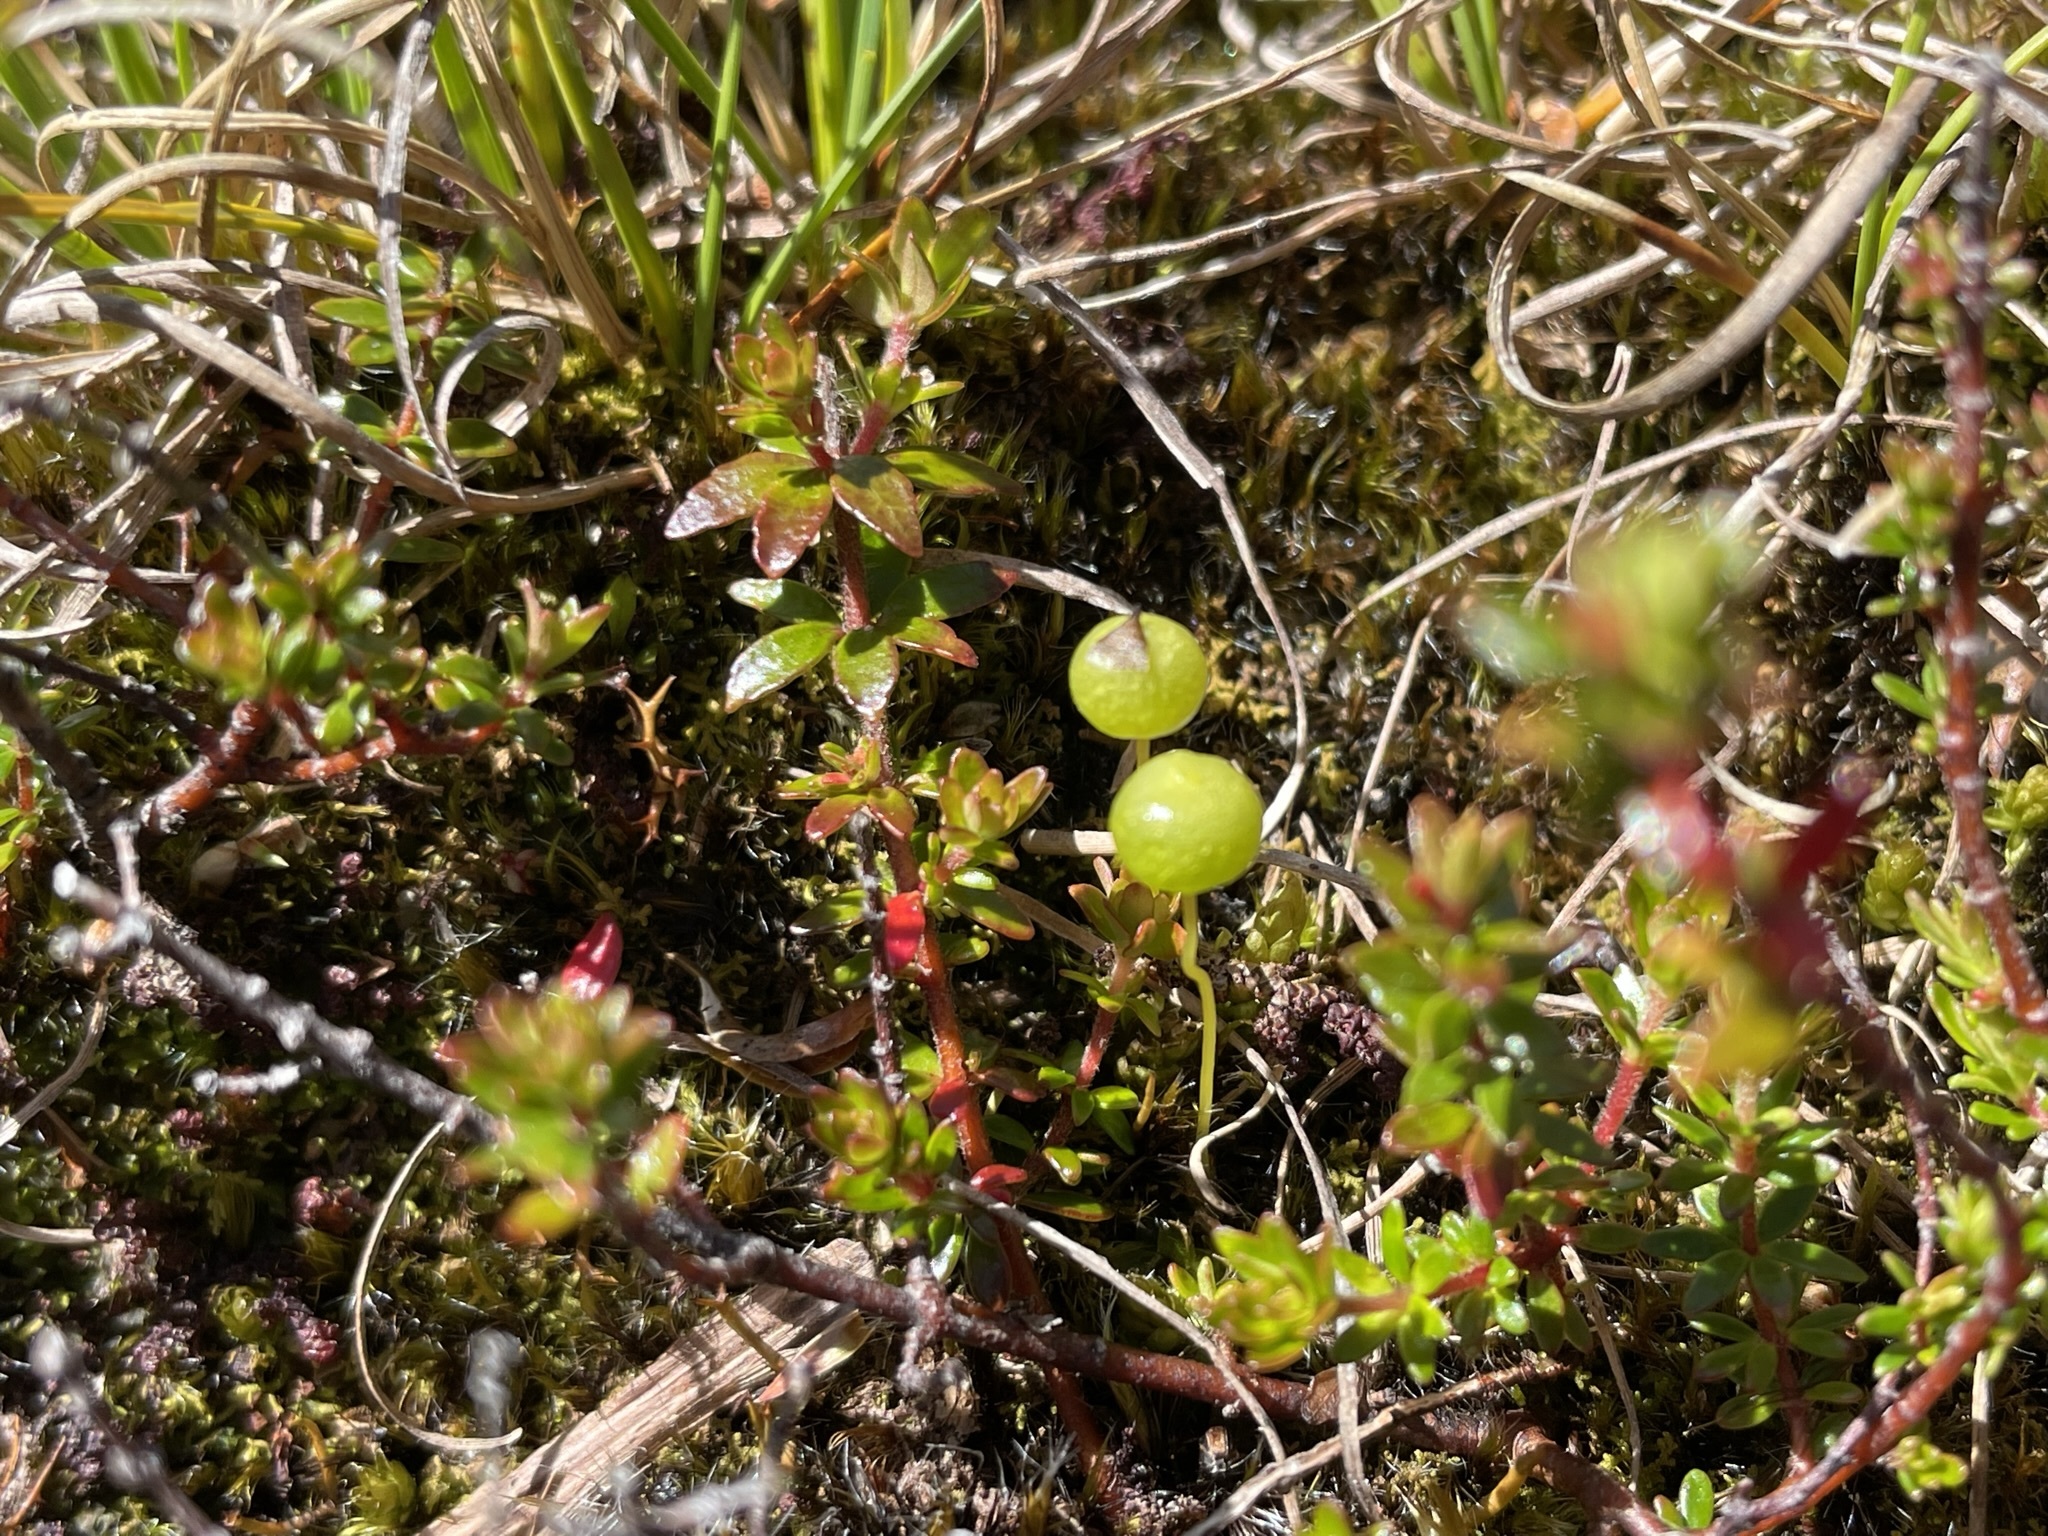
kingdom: Plantae
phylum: Bryophyta
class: Bryopsida
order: Pottiales
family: Pleurophascaceae
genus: Pleurophascum
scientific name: Pleurophascum grandiglobum
